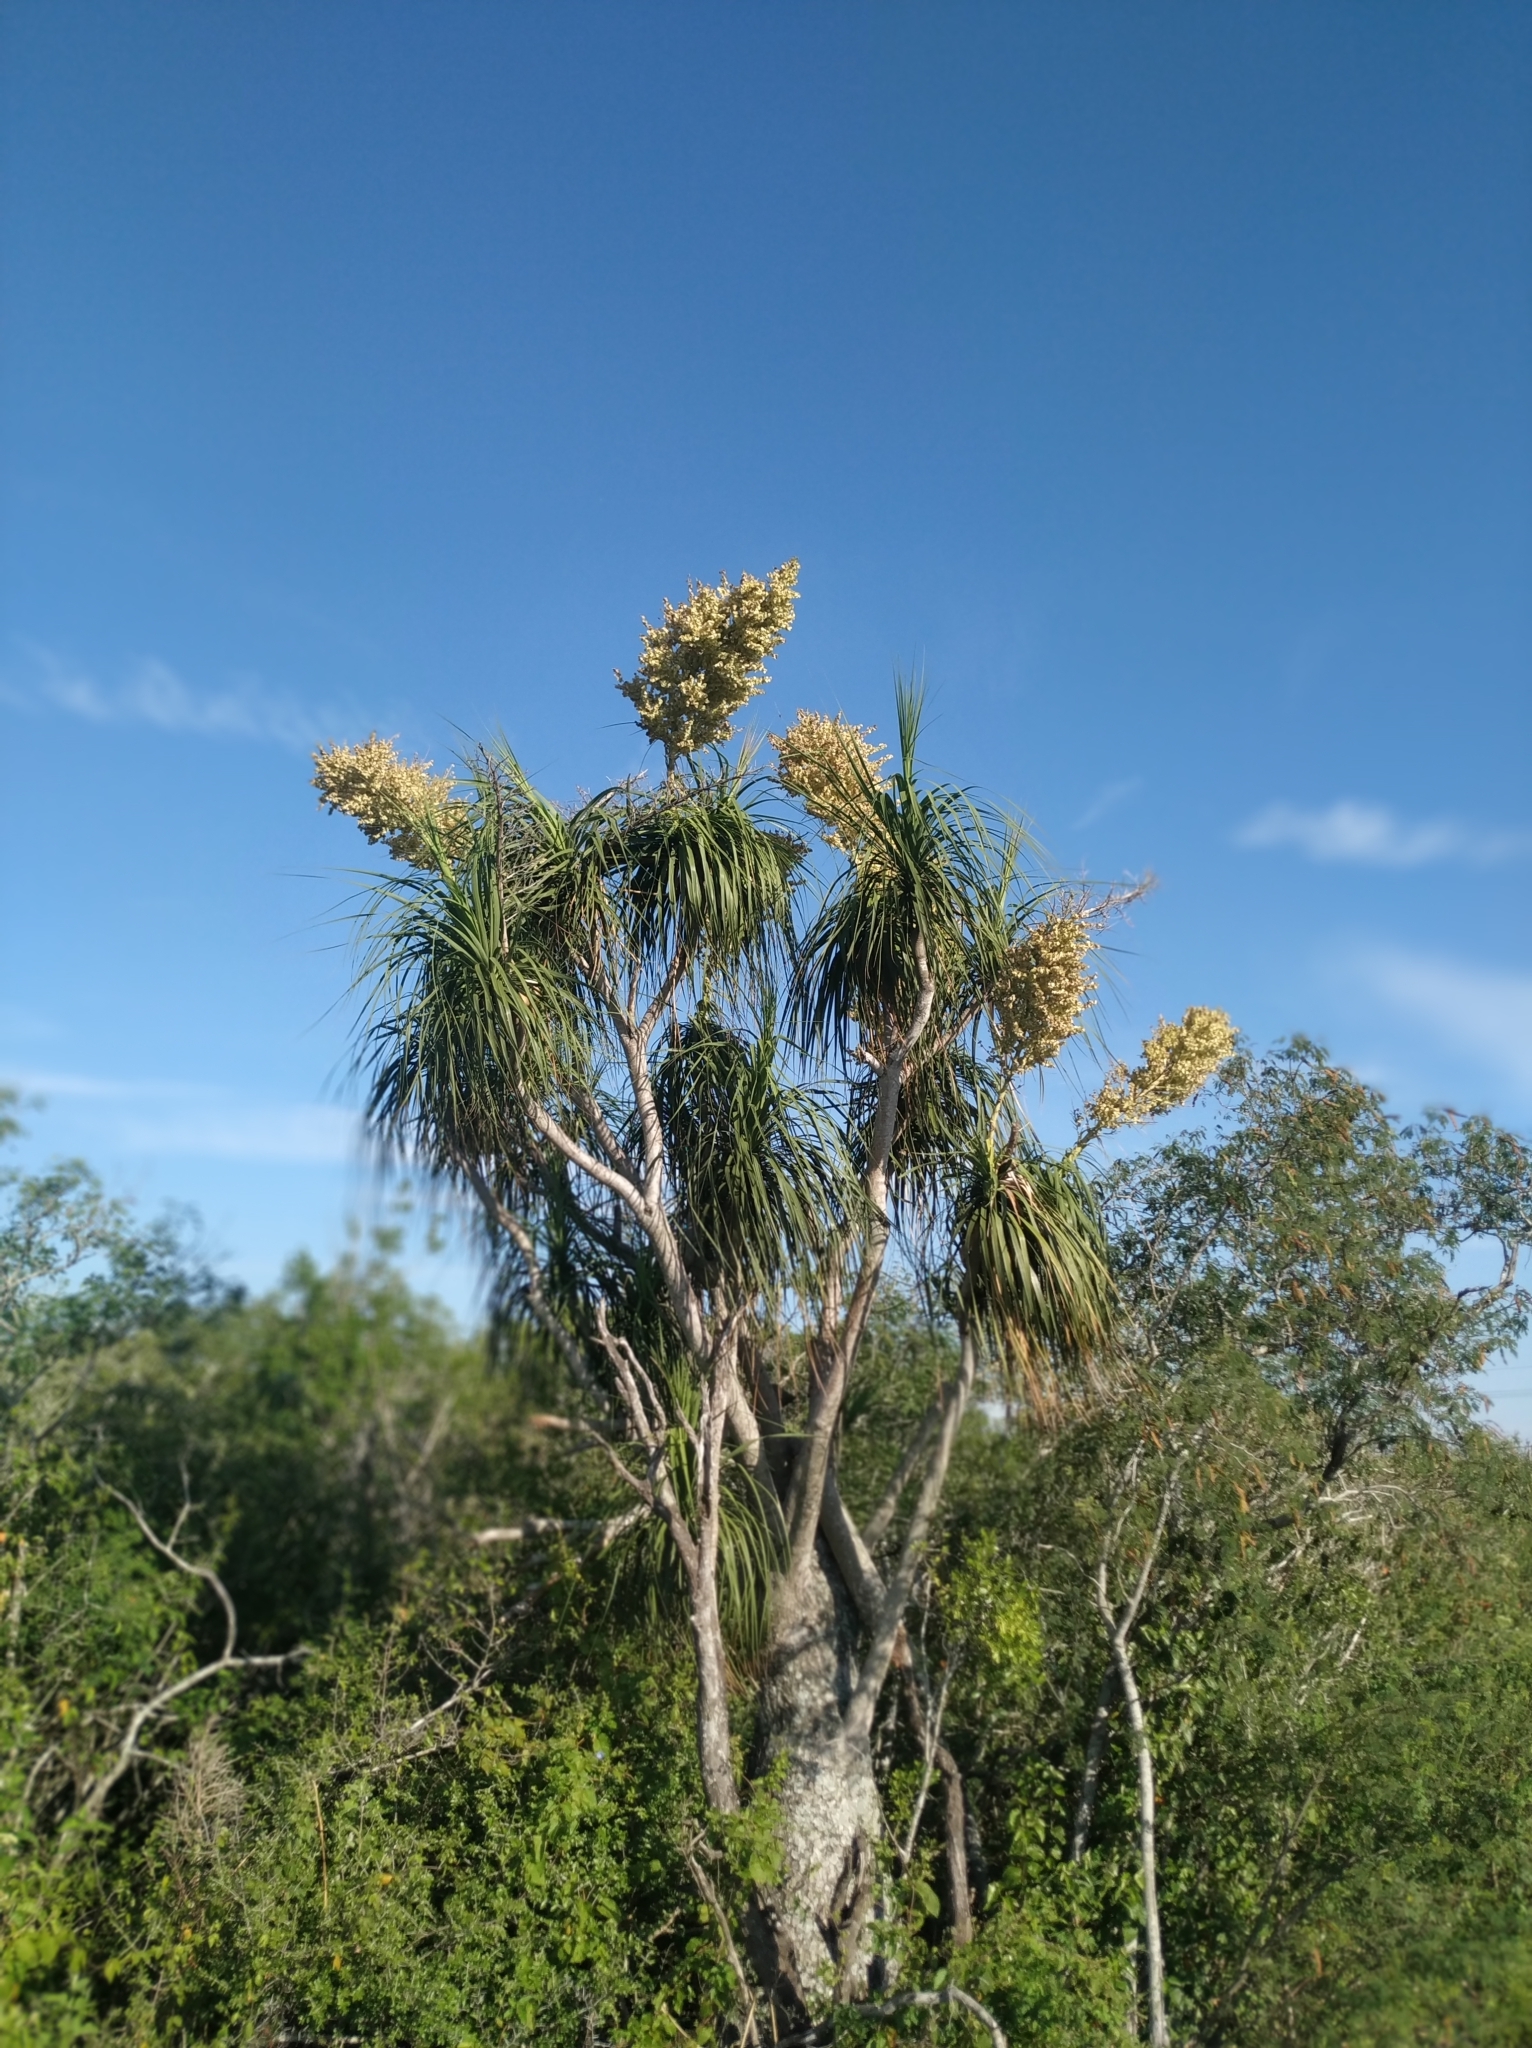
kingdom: Plantae
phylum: Tracheophyta
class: Liliopsida
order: Asparagales
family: Asparagaceae
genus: Beaucarnea
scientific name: Beaucarnea recurvata
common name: Stripy  ponytail
